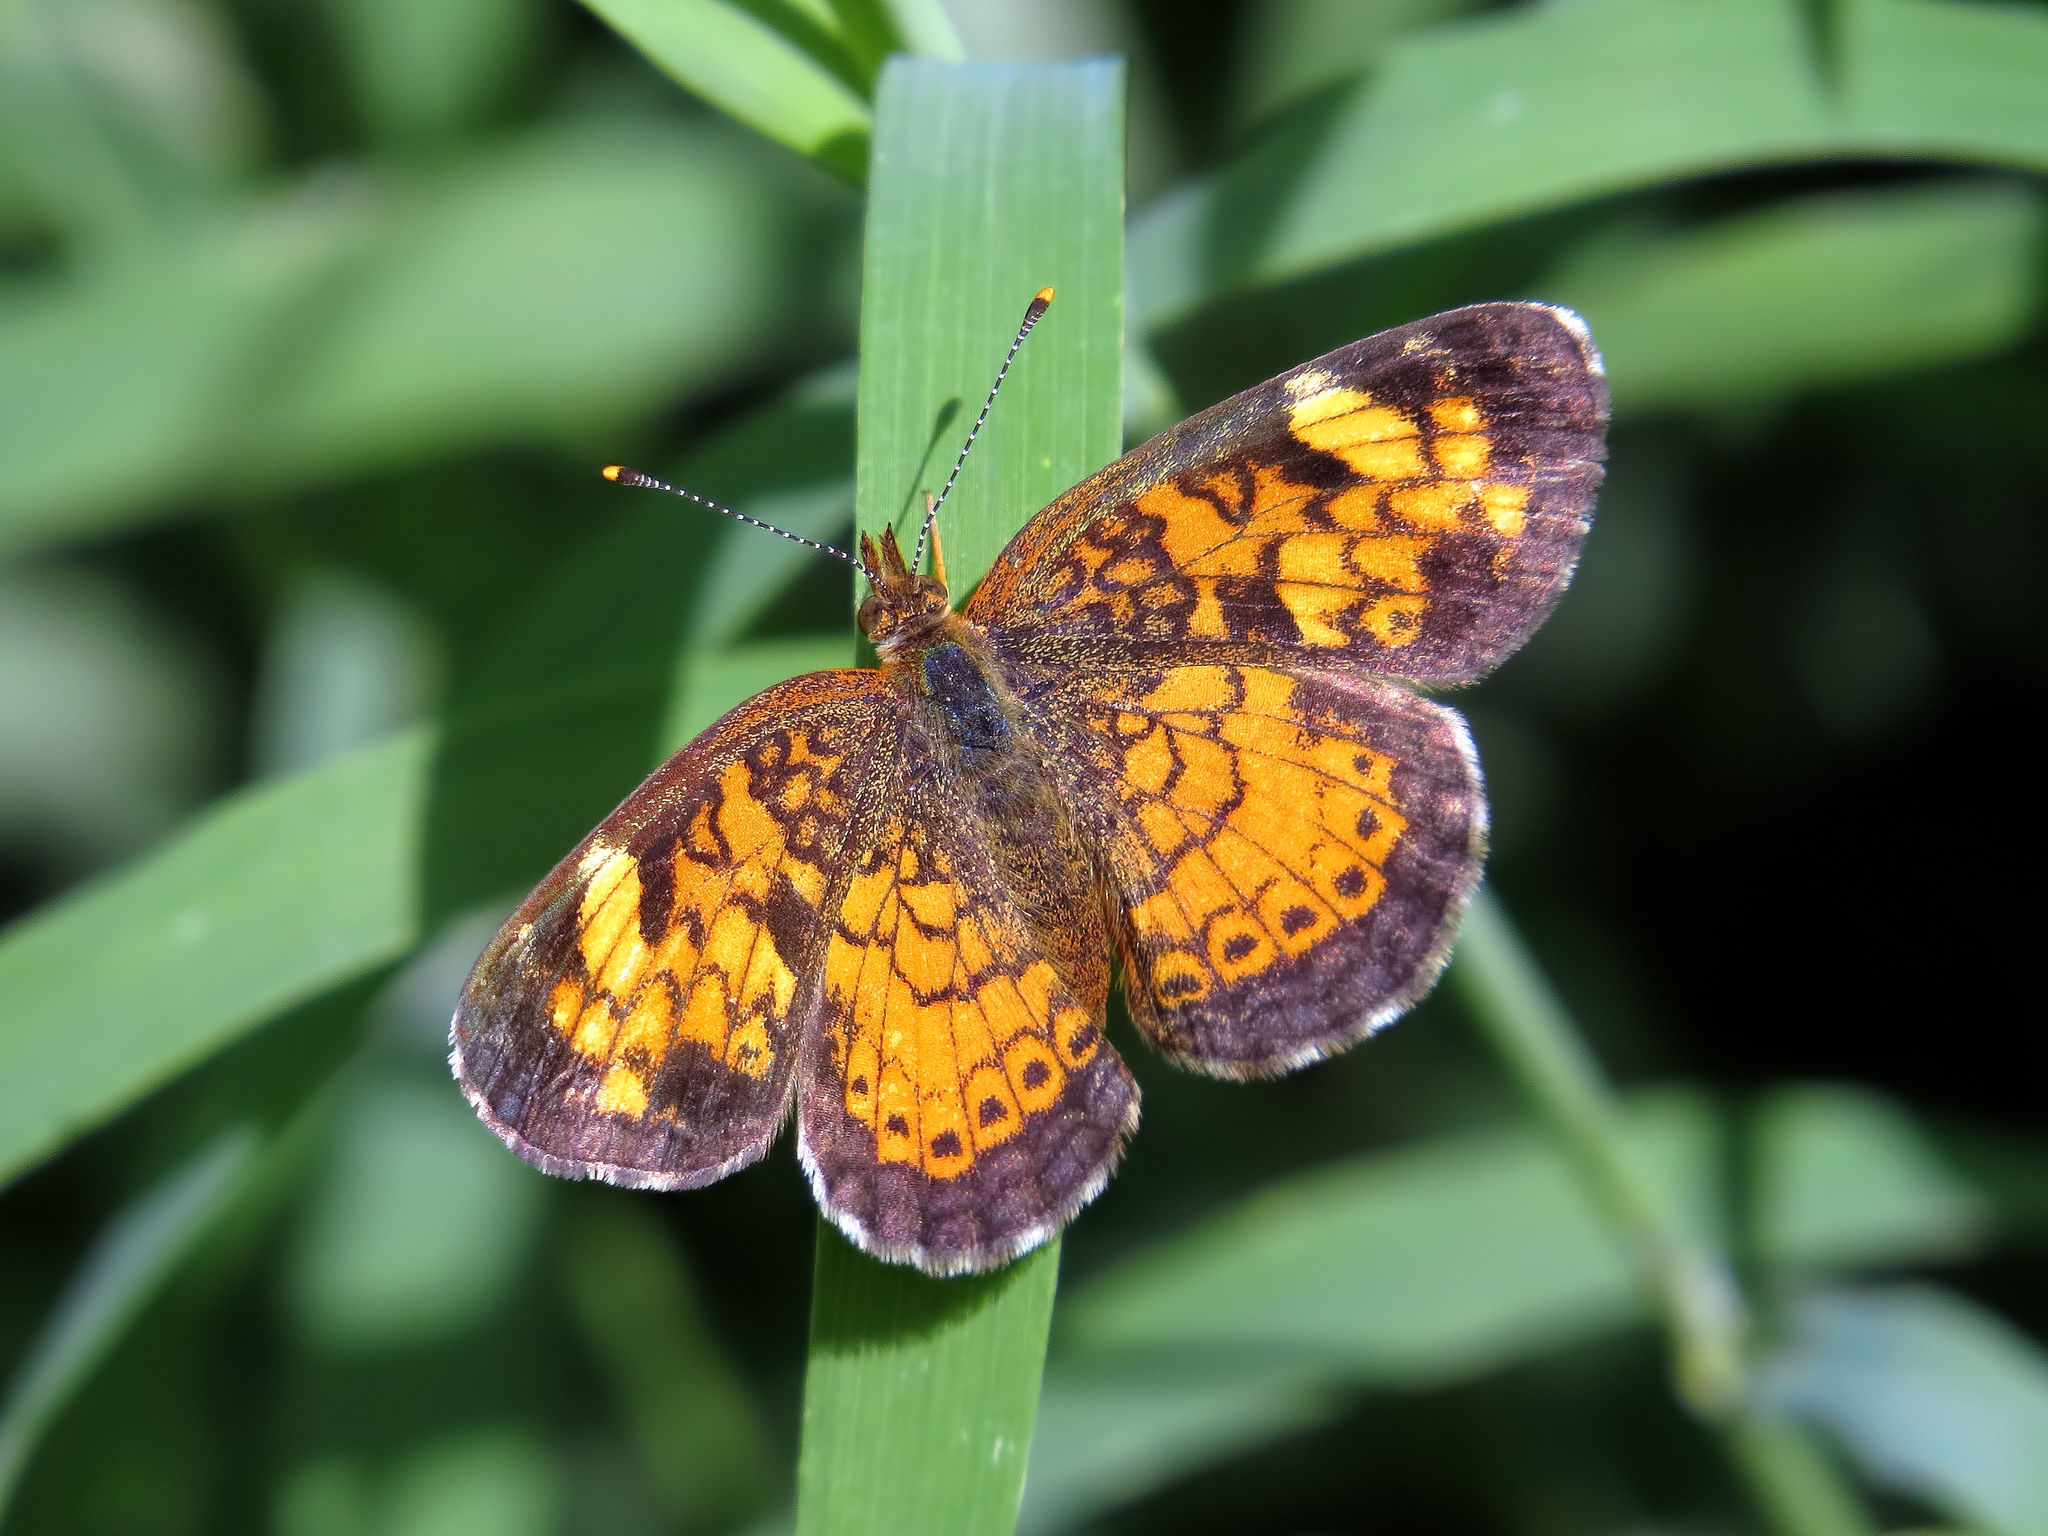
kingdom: Animalia
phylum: Arthropoda
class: Insecta
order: Lepidoptera
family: Nymphalidae
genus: Phyciodes
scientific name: Phyciodes tharos
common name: Pearl crescent
